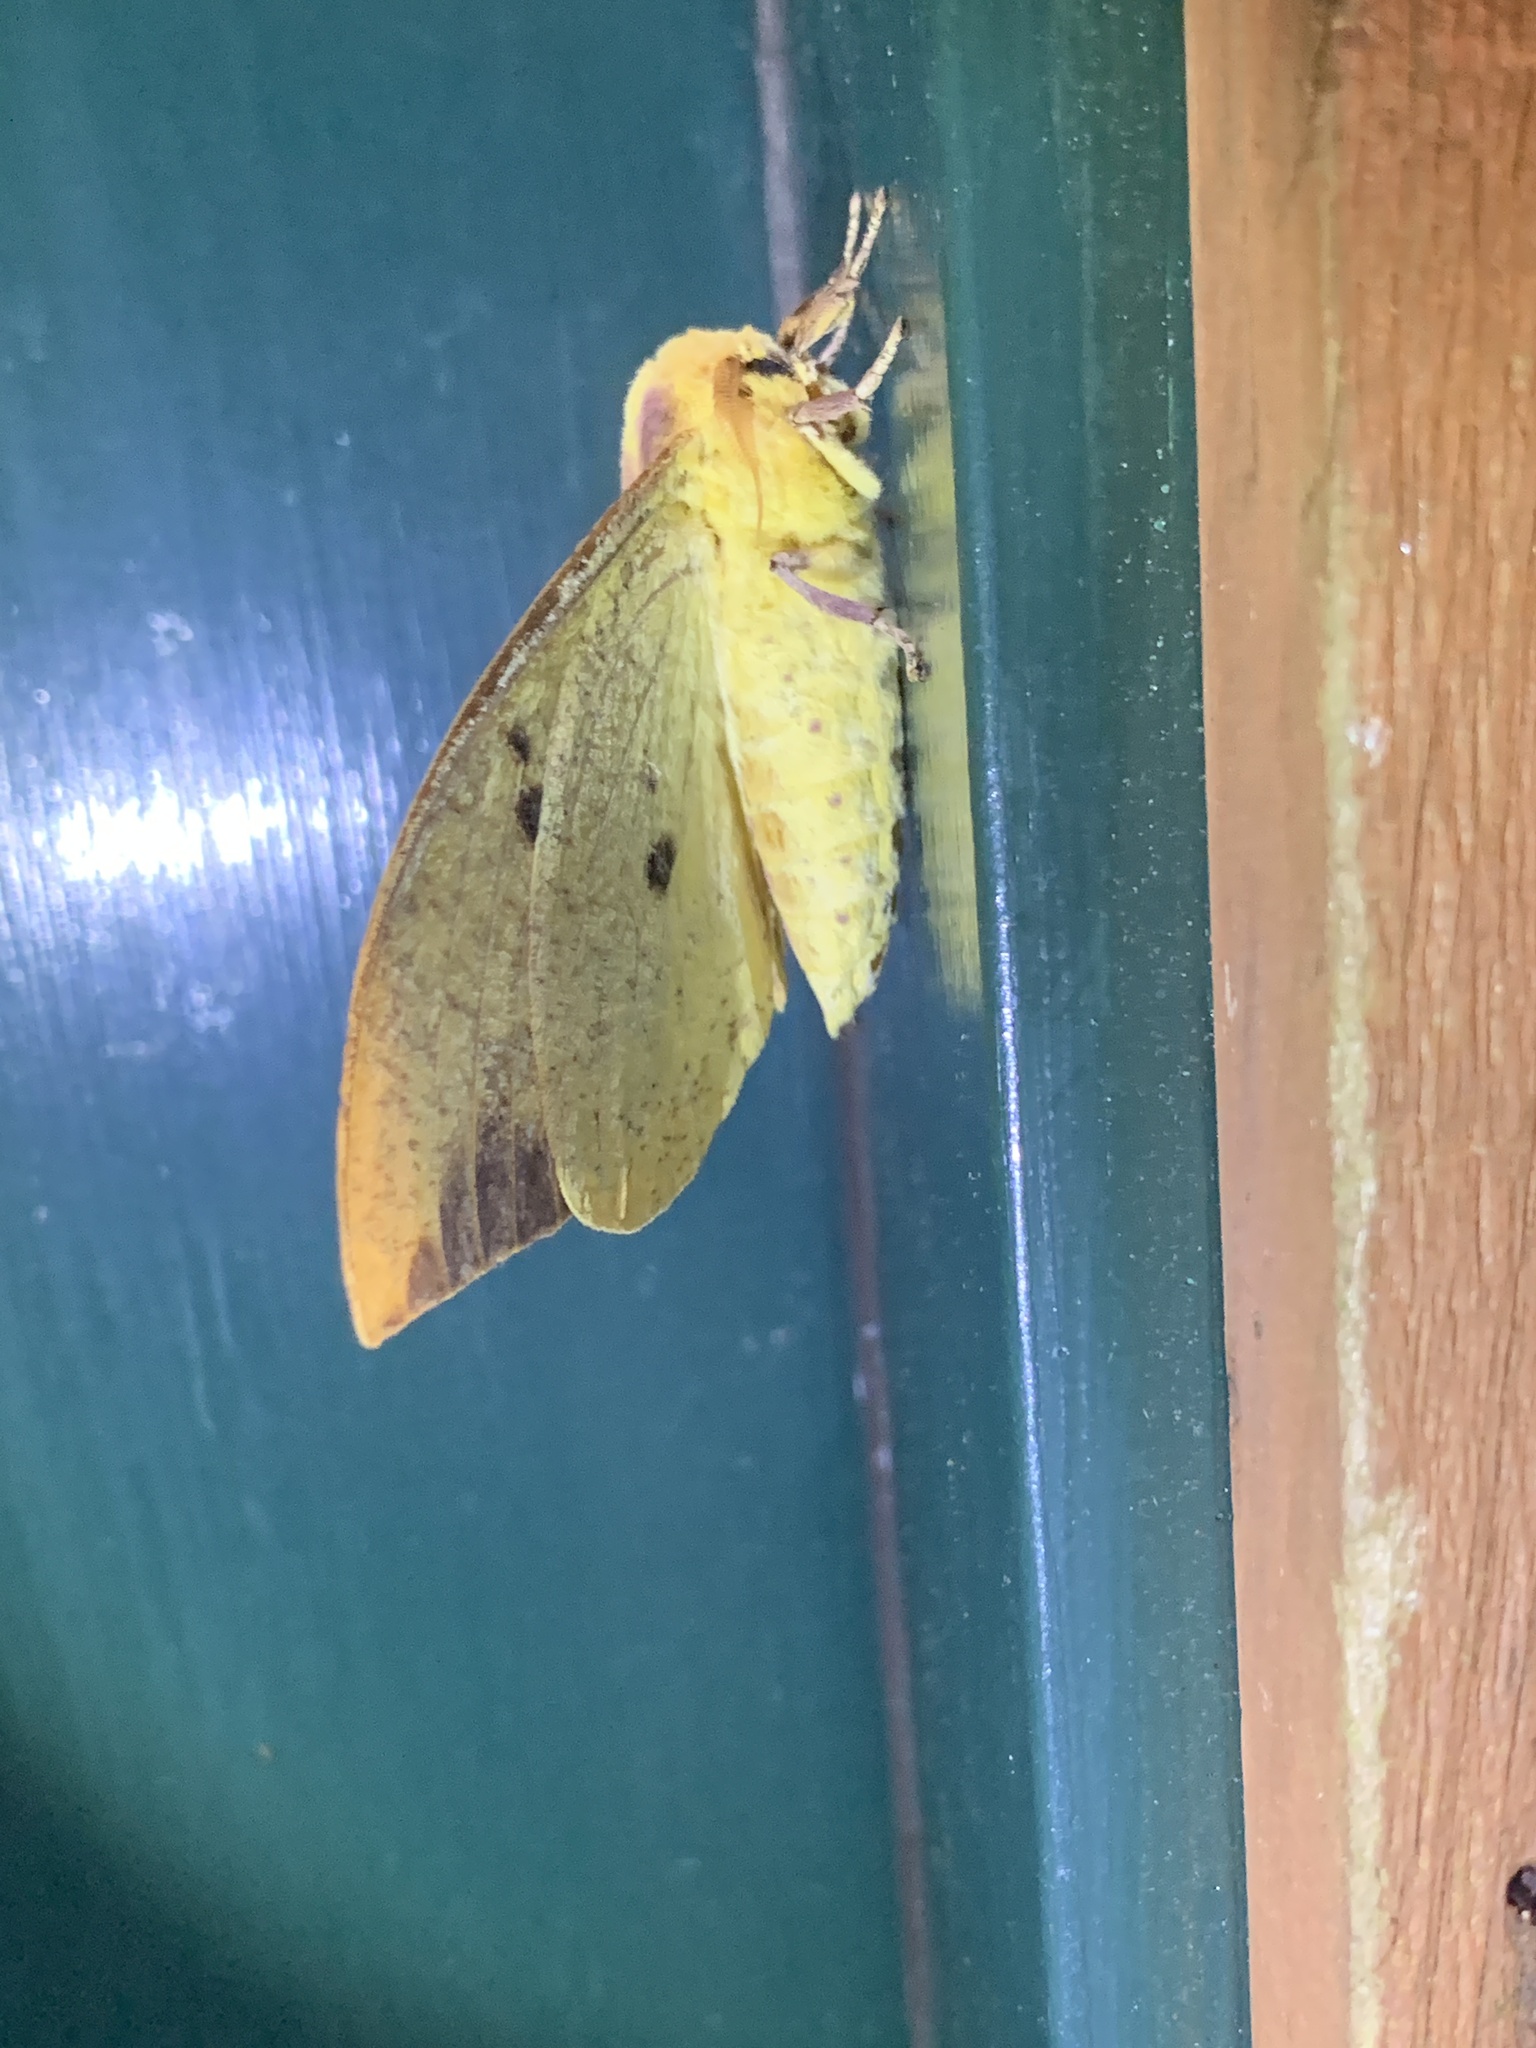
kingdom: Animalia
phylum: Arthropoda
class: Insecta
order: Lepidoptera
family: Saturniidae
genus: Eacles
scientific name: Eacles imperialis
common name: Imperial moth
